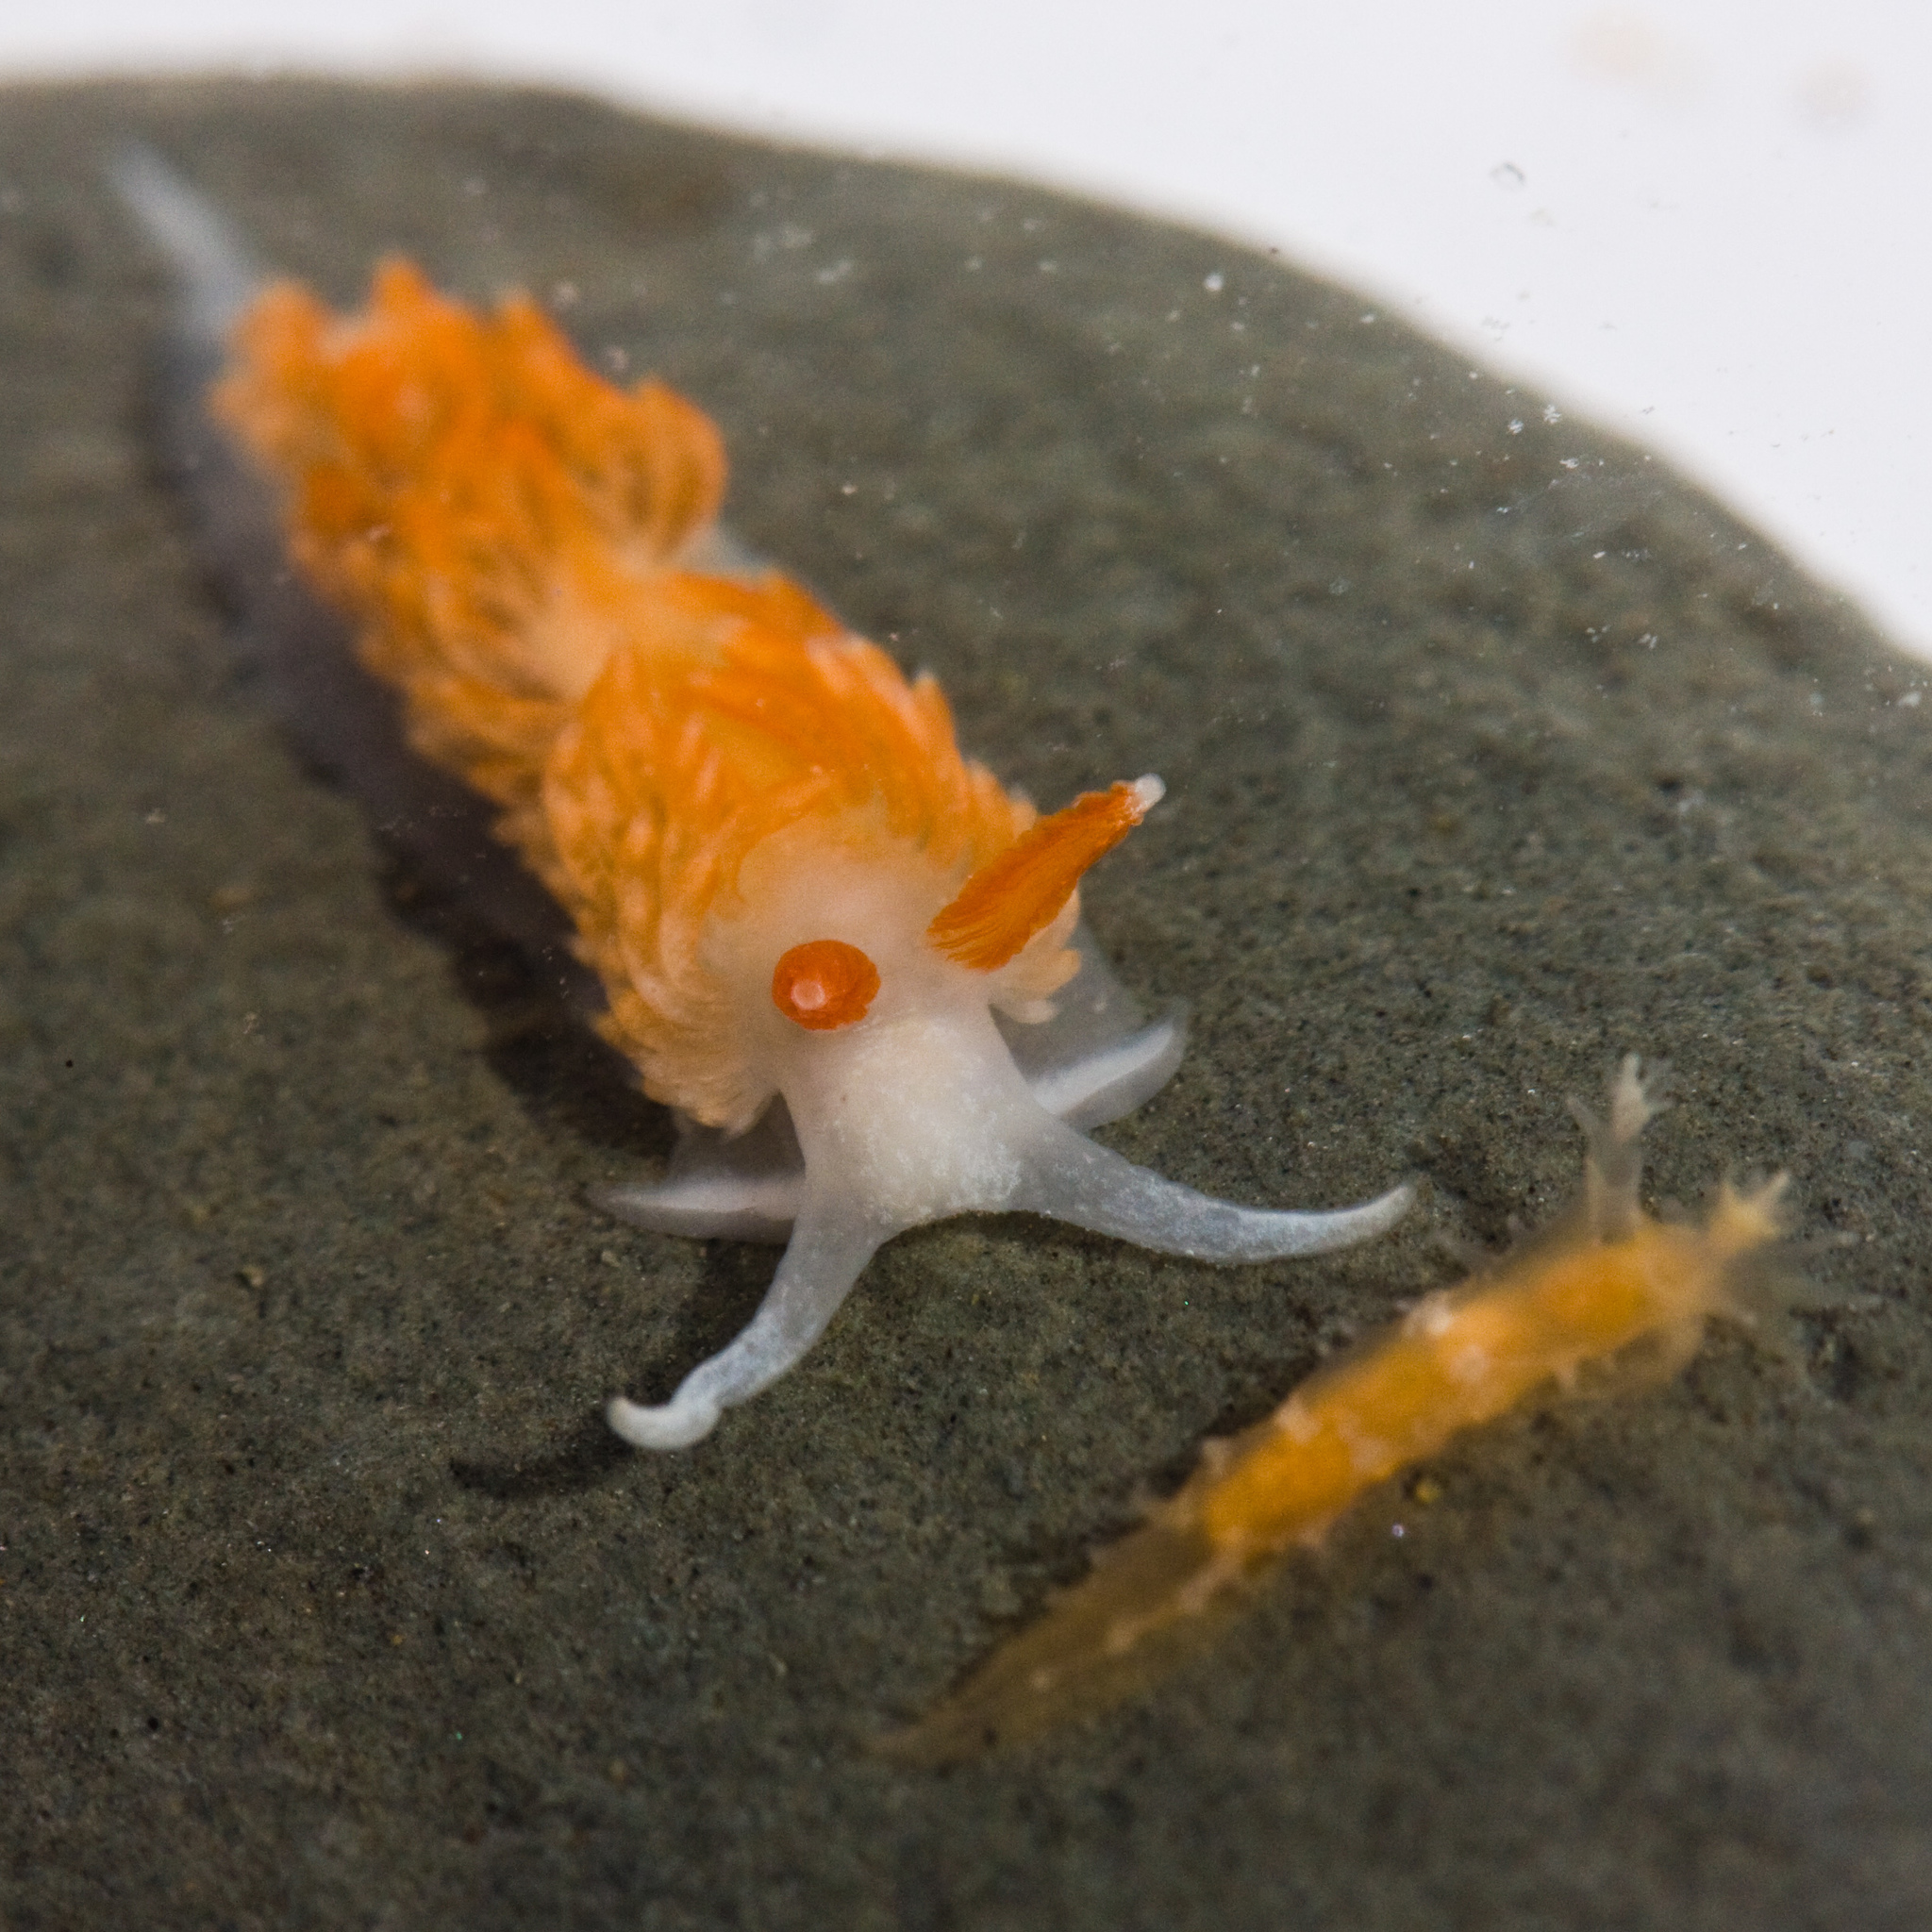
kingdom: Animalia
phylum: Mollusca
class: Gastropoda
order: Nudibranchia
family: Tritoniidae
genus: Tritonicula
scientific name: Tritonicula myrakeenae
